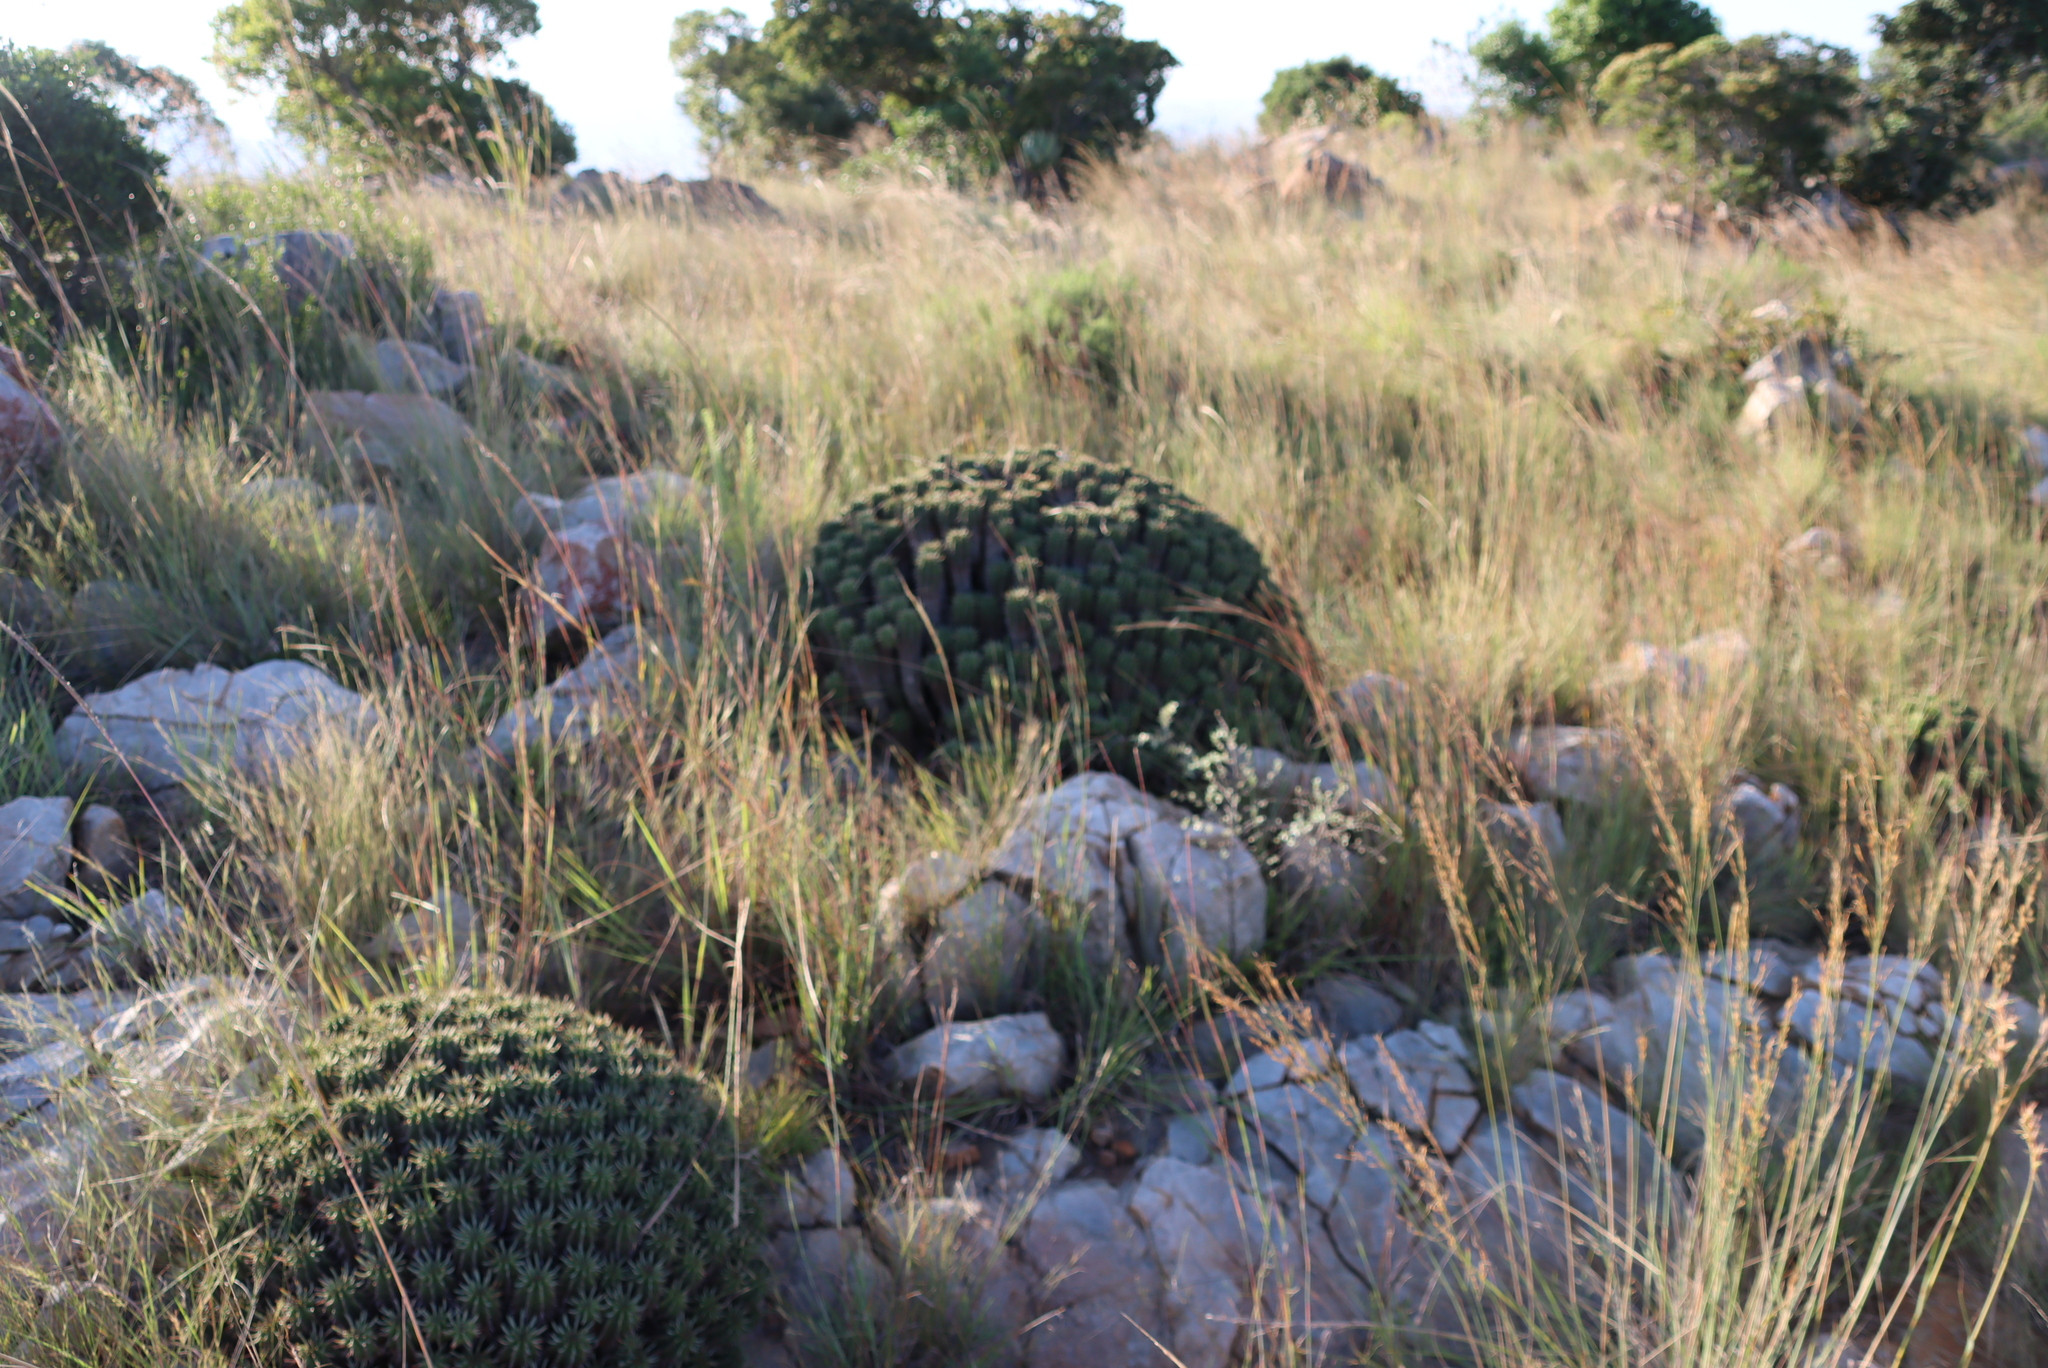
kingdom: Plantae
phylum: Tracheophyta
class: Magnoliopsida
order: Malpighiales
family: Euphorbiaceae
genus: Euphorbia
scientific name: Euphorbia pulvinata
